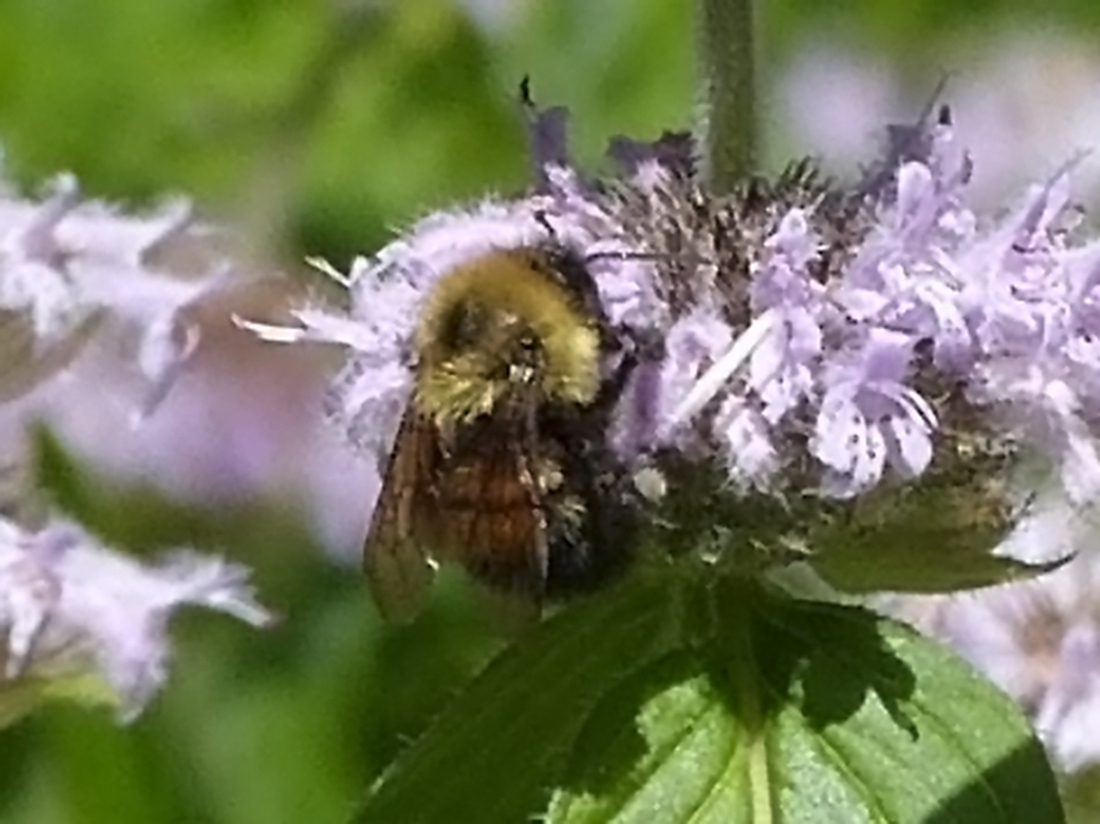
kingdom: Animalia
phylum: Arthropoda
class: Insecta
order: Hymenoptera
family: Apidae
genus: Bombus
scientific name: Bombus bimaculatus
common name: Two-spotted bumble bee
